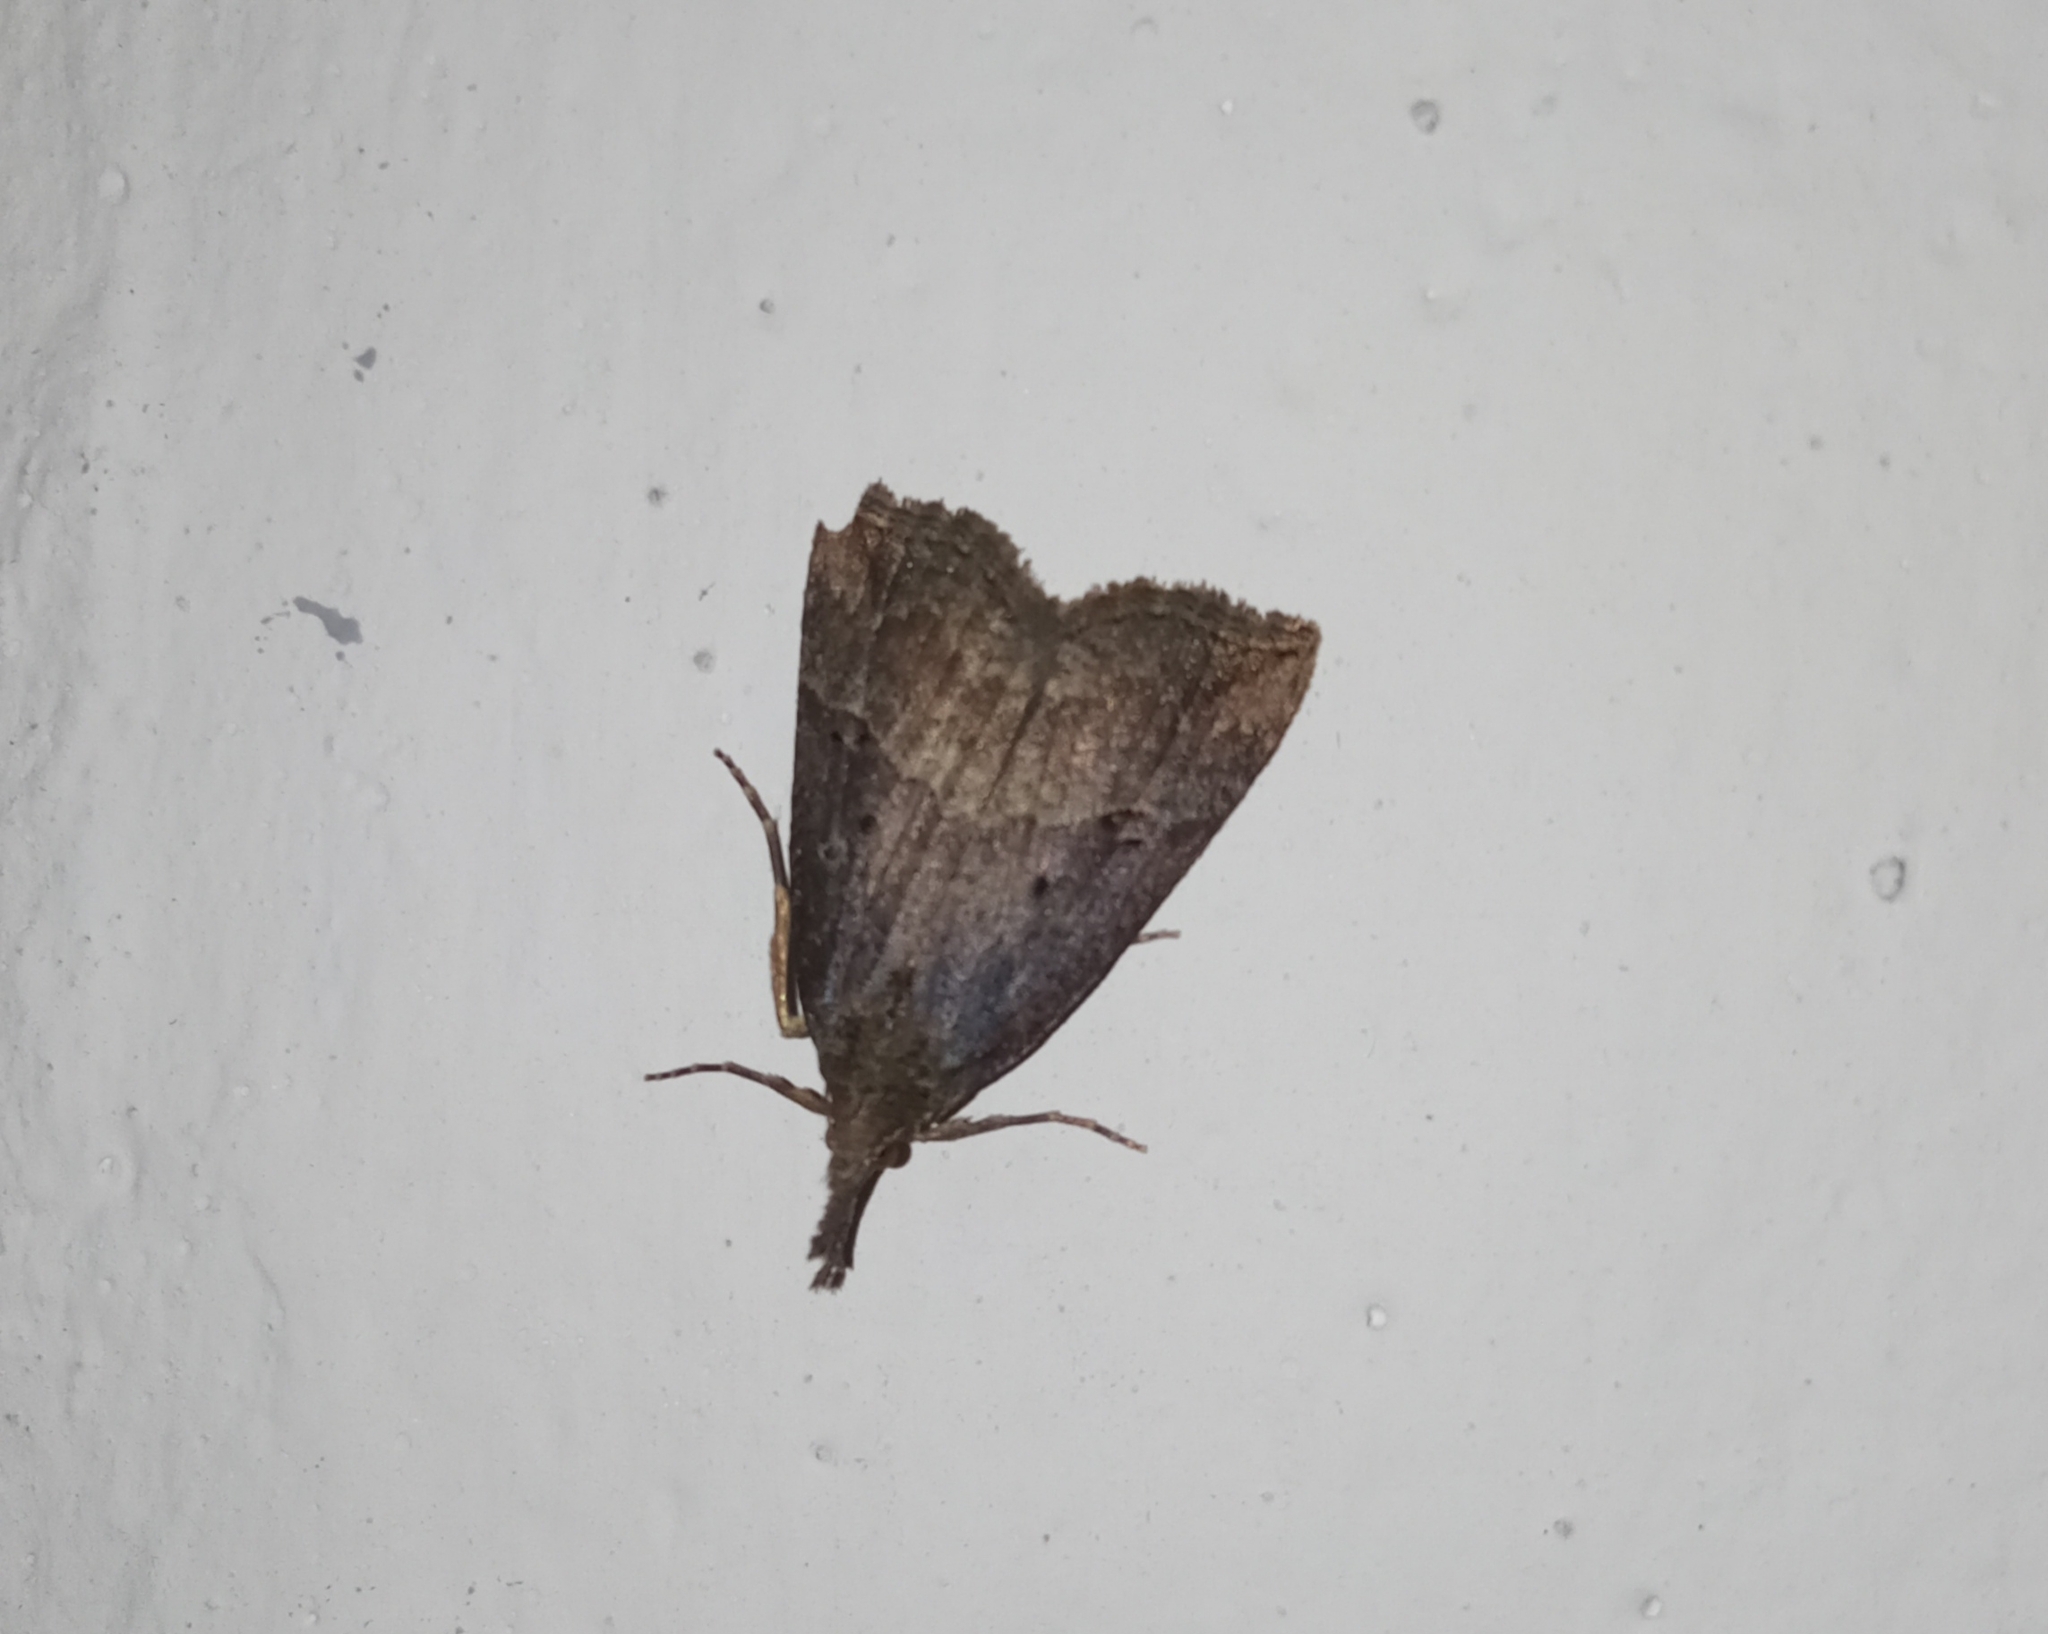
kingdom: Animalia
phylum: Arthropoda
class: Insecta
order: Lepidoptera
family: Erebidae
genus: Hypena
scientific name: Hypena rostralis
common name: Buttoned snout
